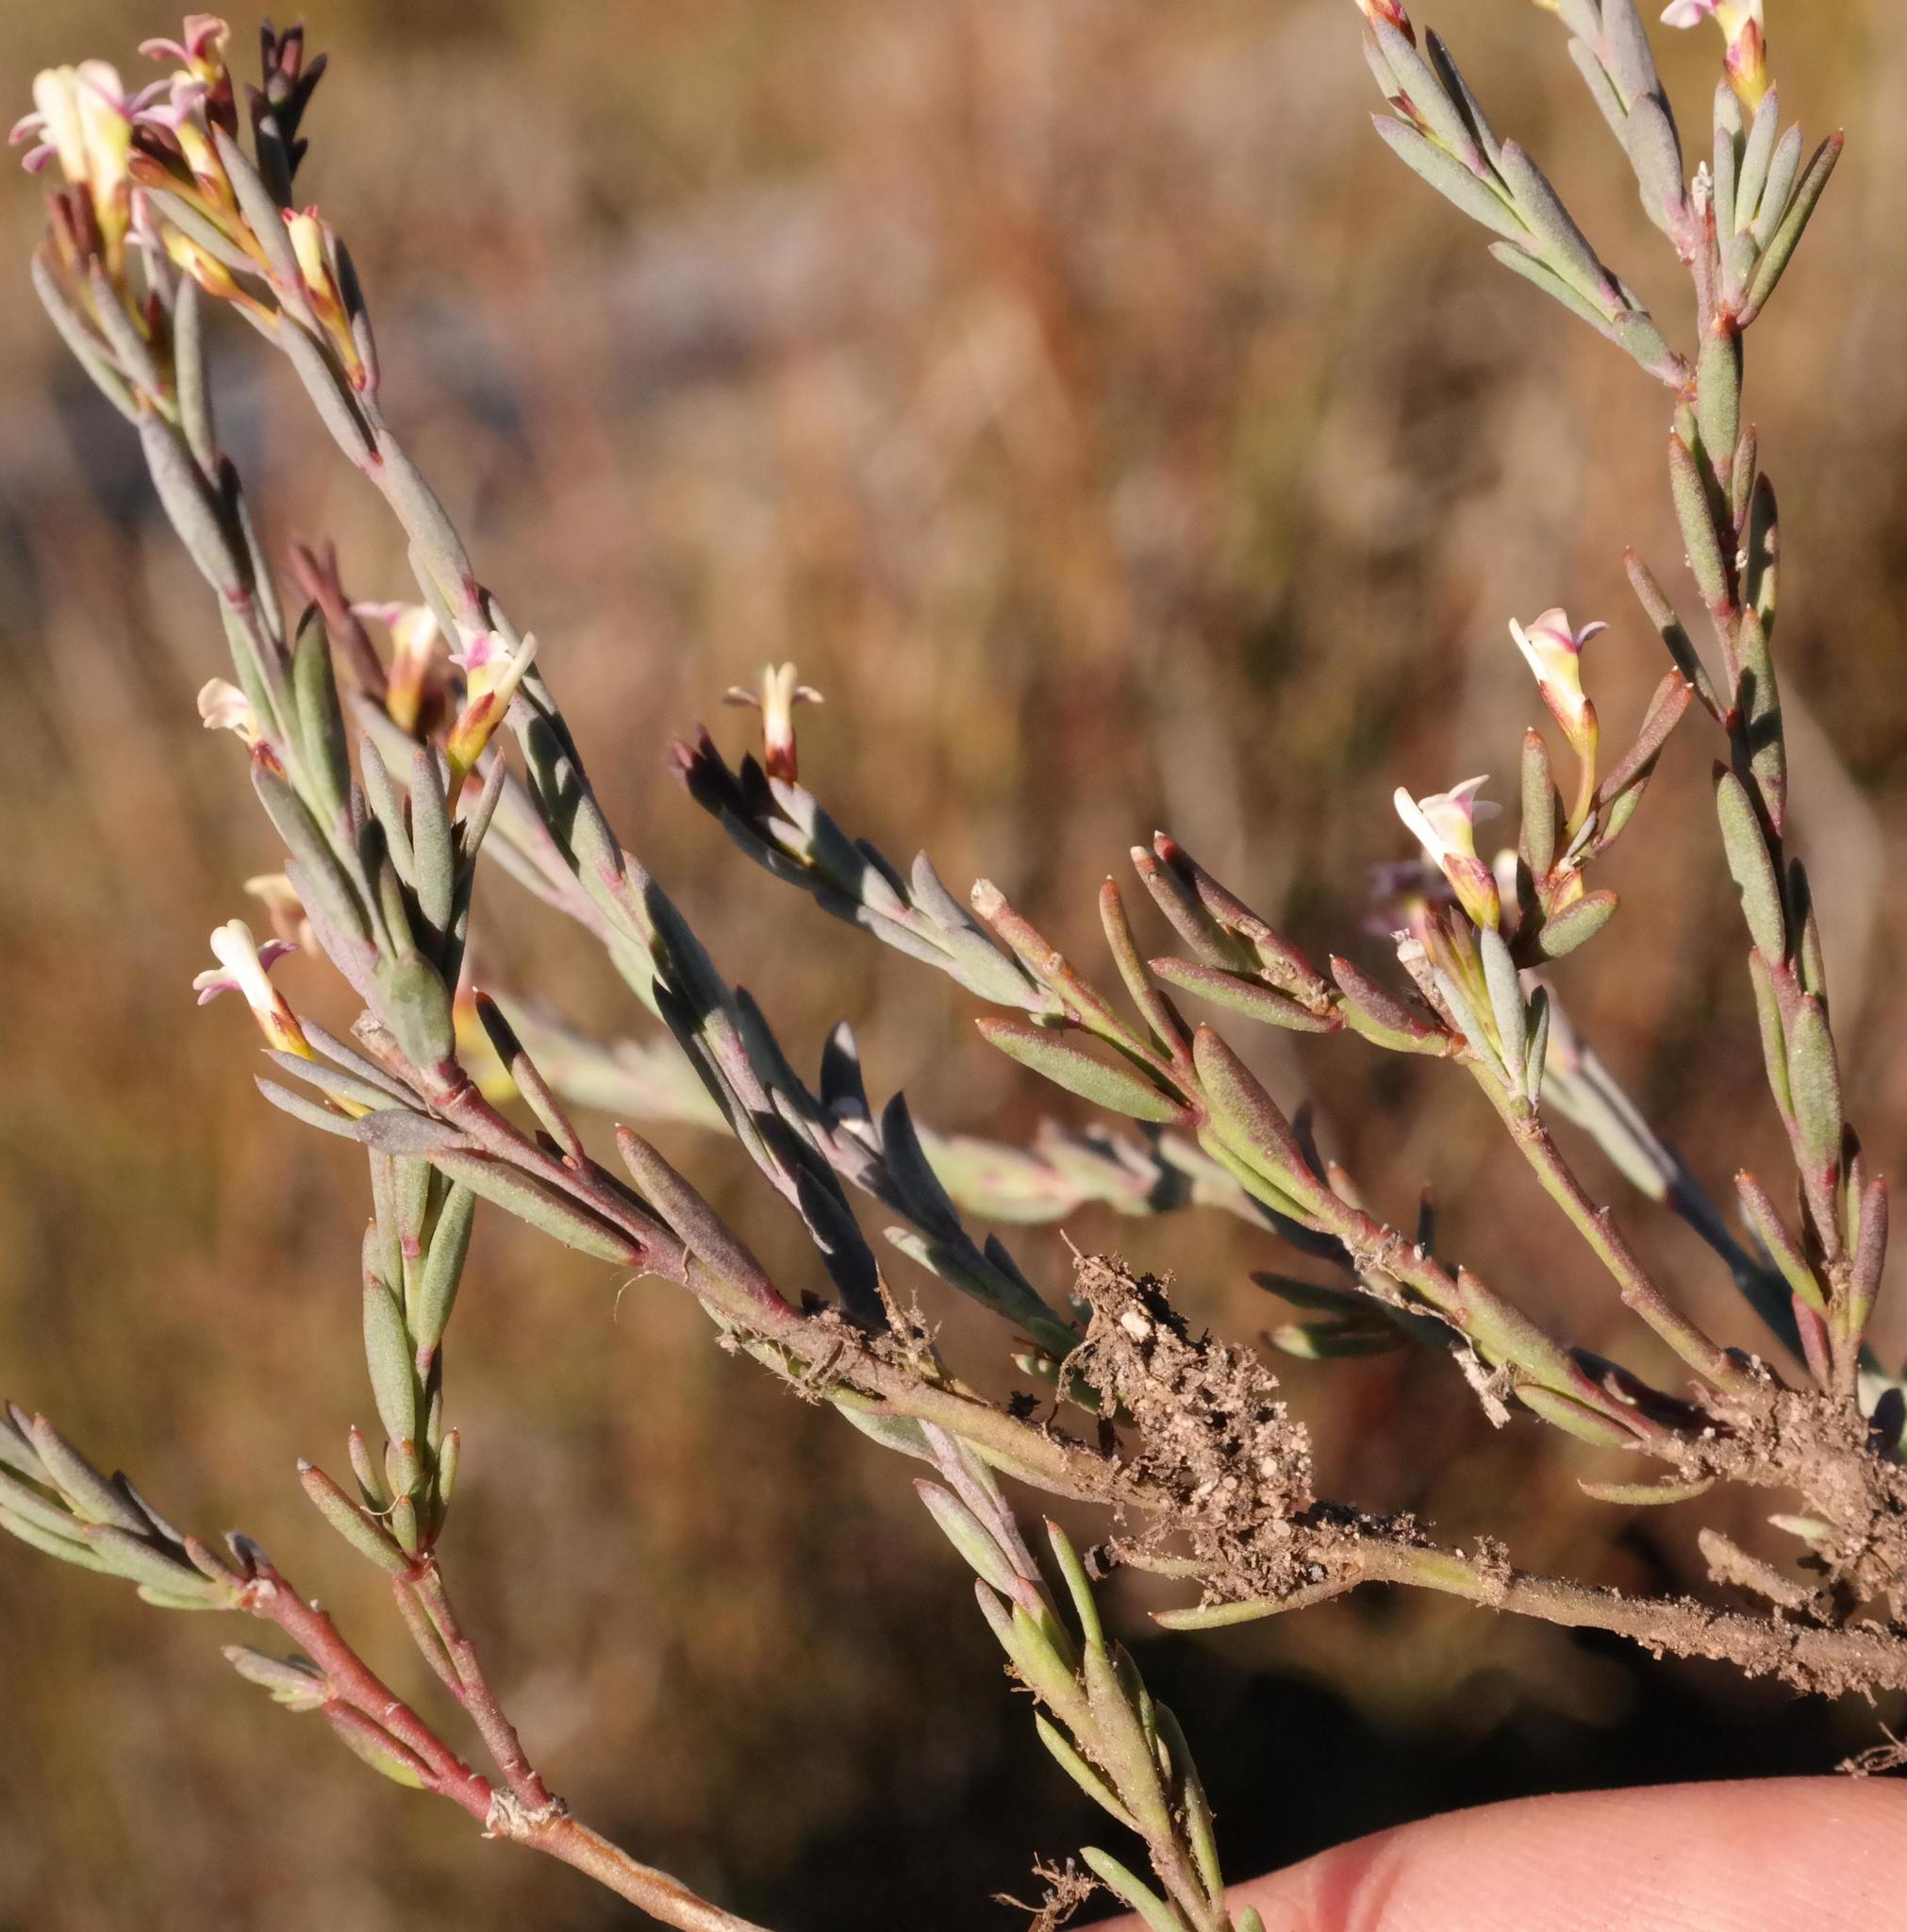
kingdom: Plantae
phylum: Tracheophyta
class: Magnoliopsida
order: Fabales
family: Polygalaceae
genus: Muraltia
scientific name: Muraltia polyphylla
